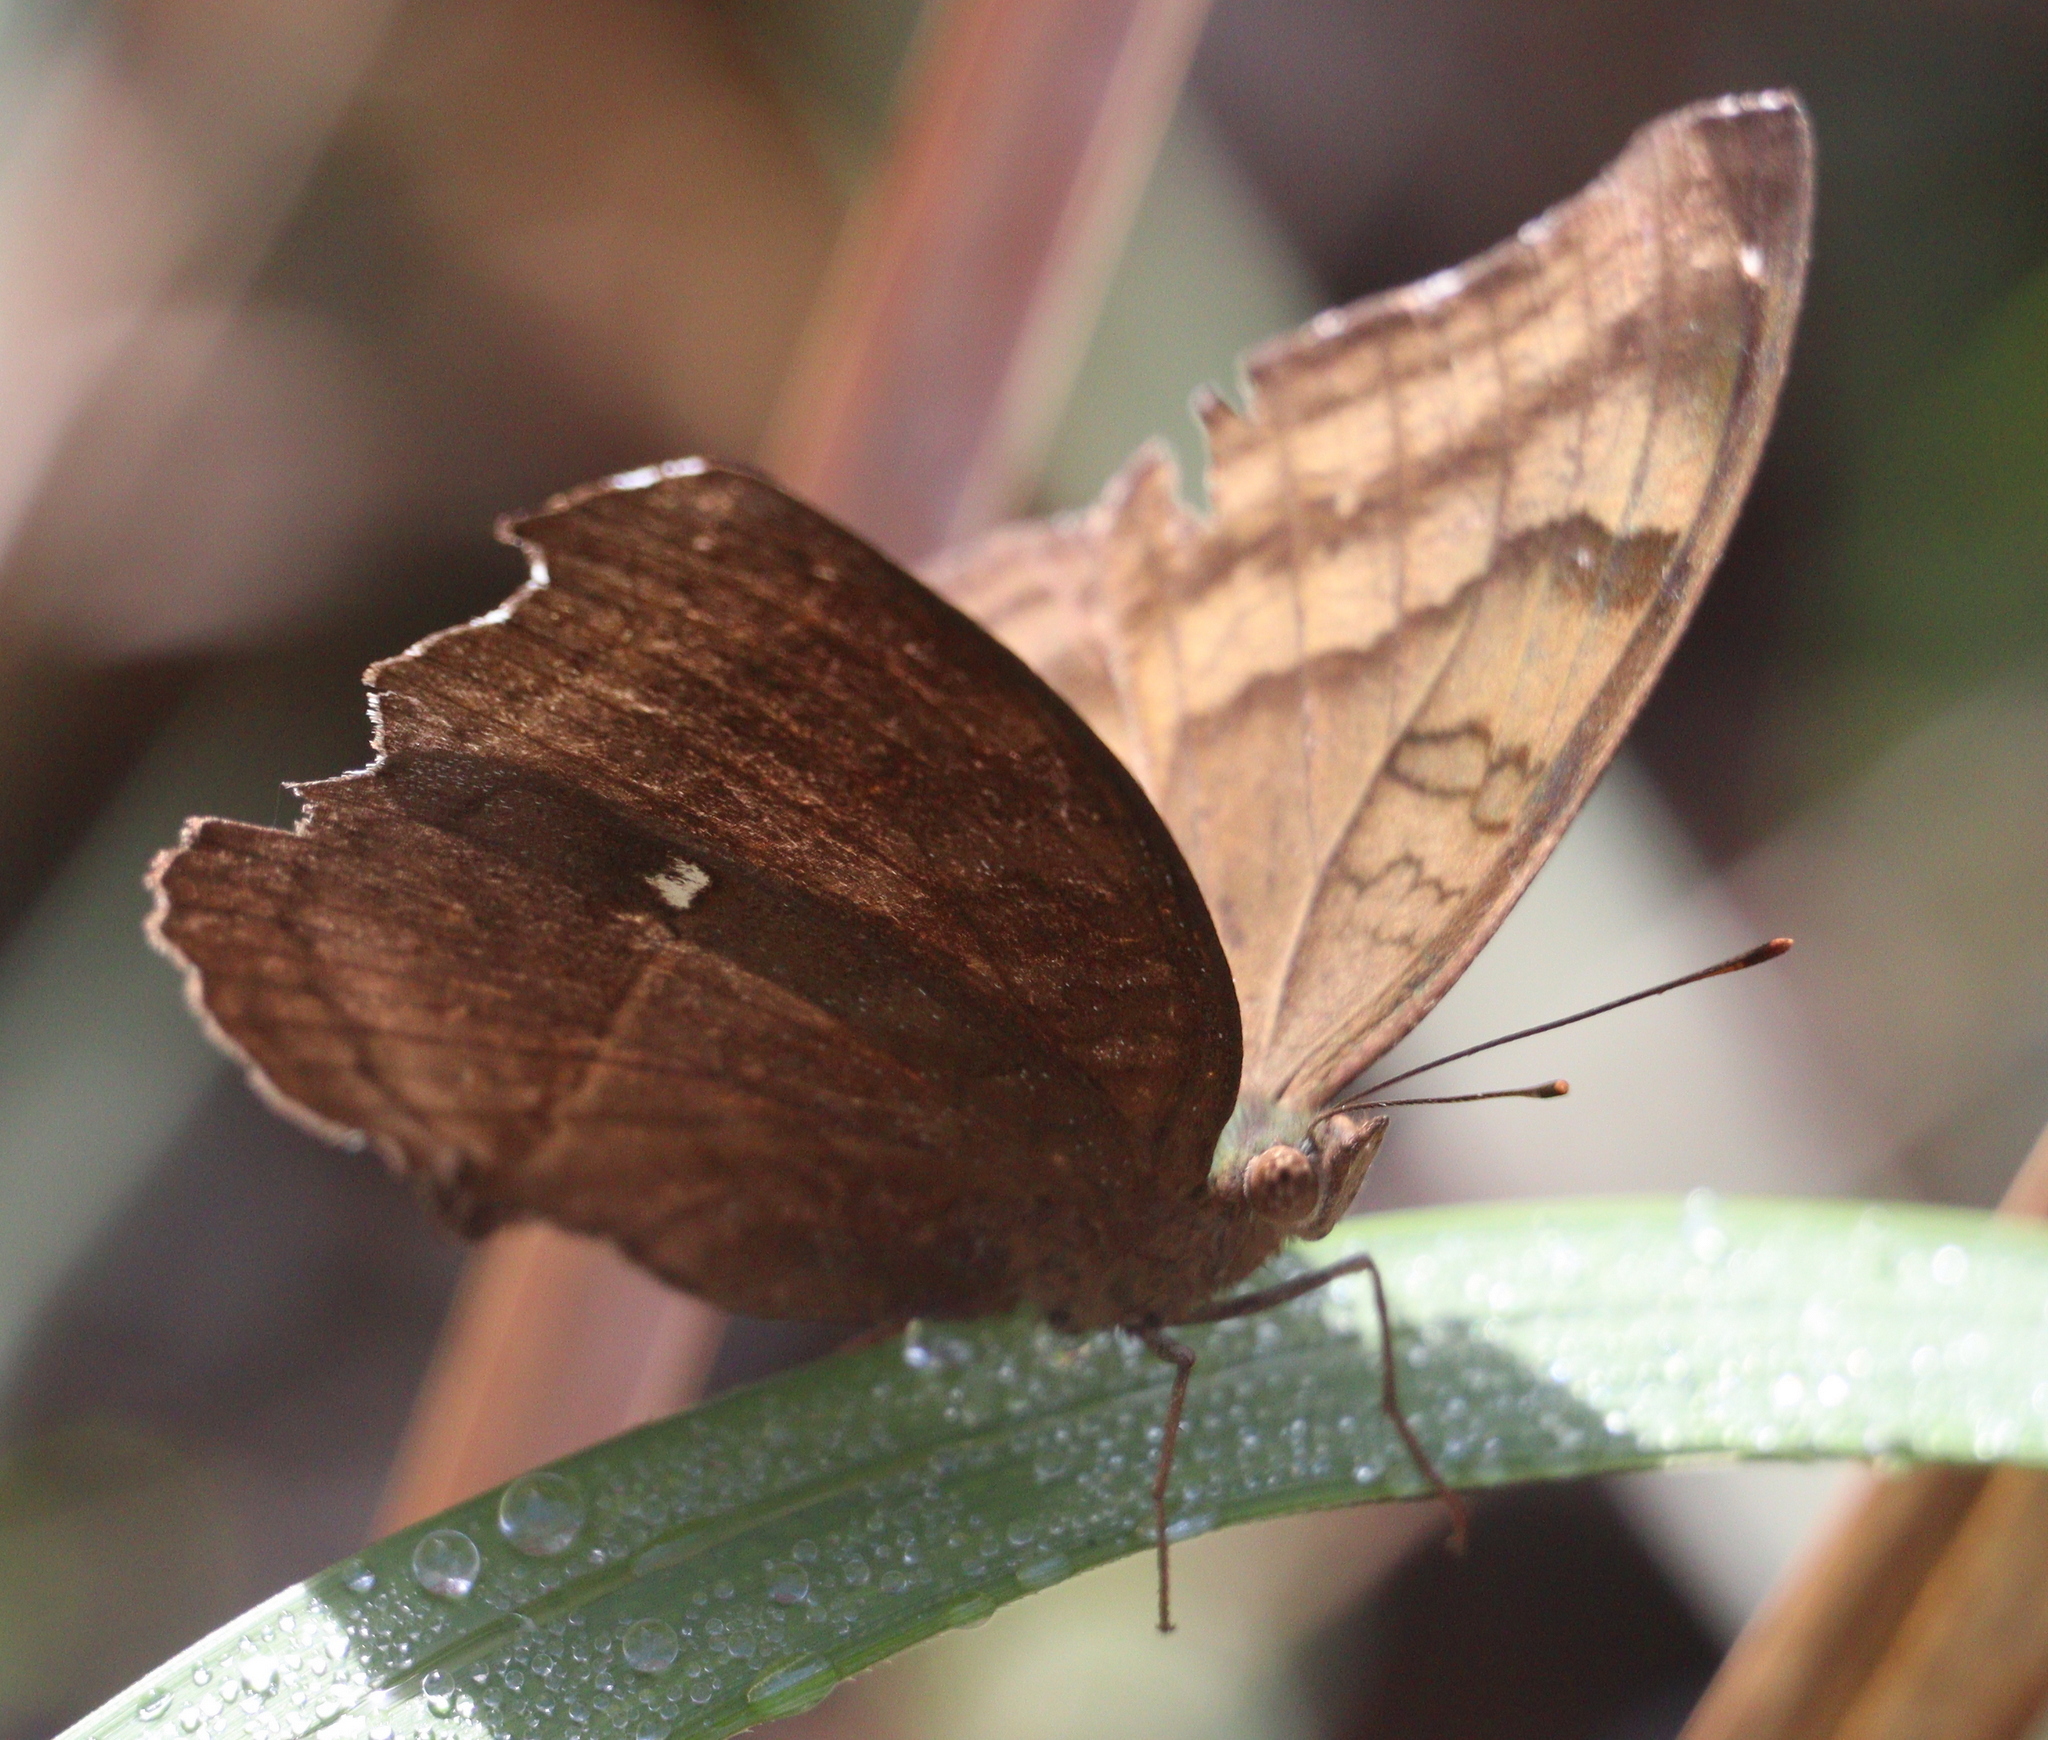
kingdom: Animalia
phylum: Arthropoda
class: Insecta
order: Lepidoptera
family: Nymphalidae
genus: Junonia
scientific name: Junonia iphita
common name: Chocolate pansy
